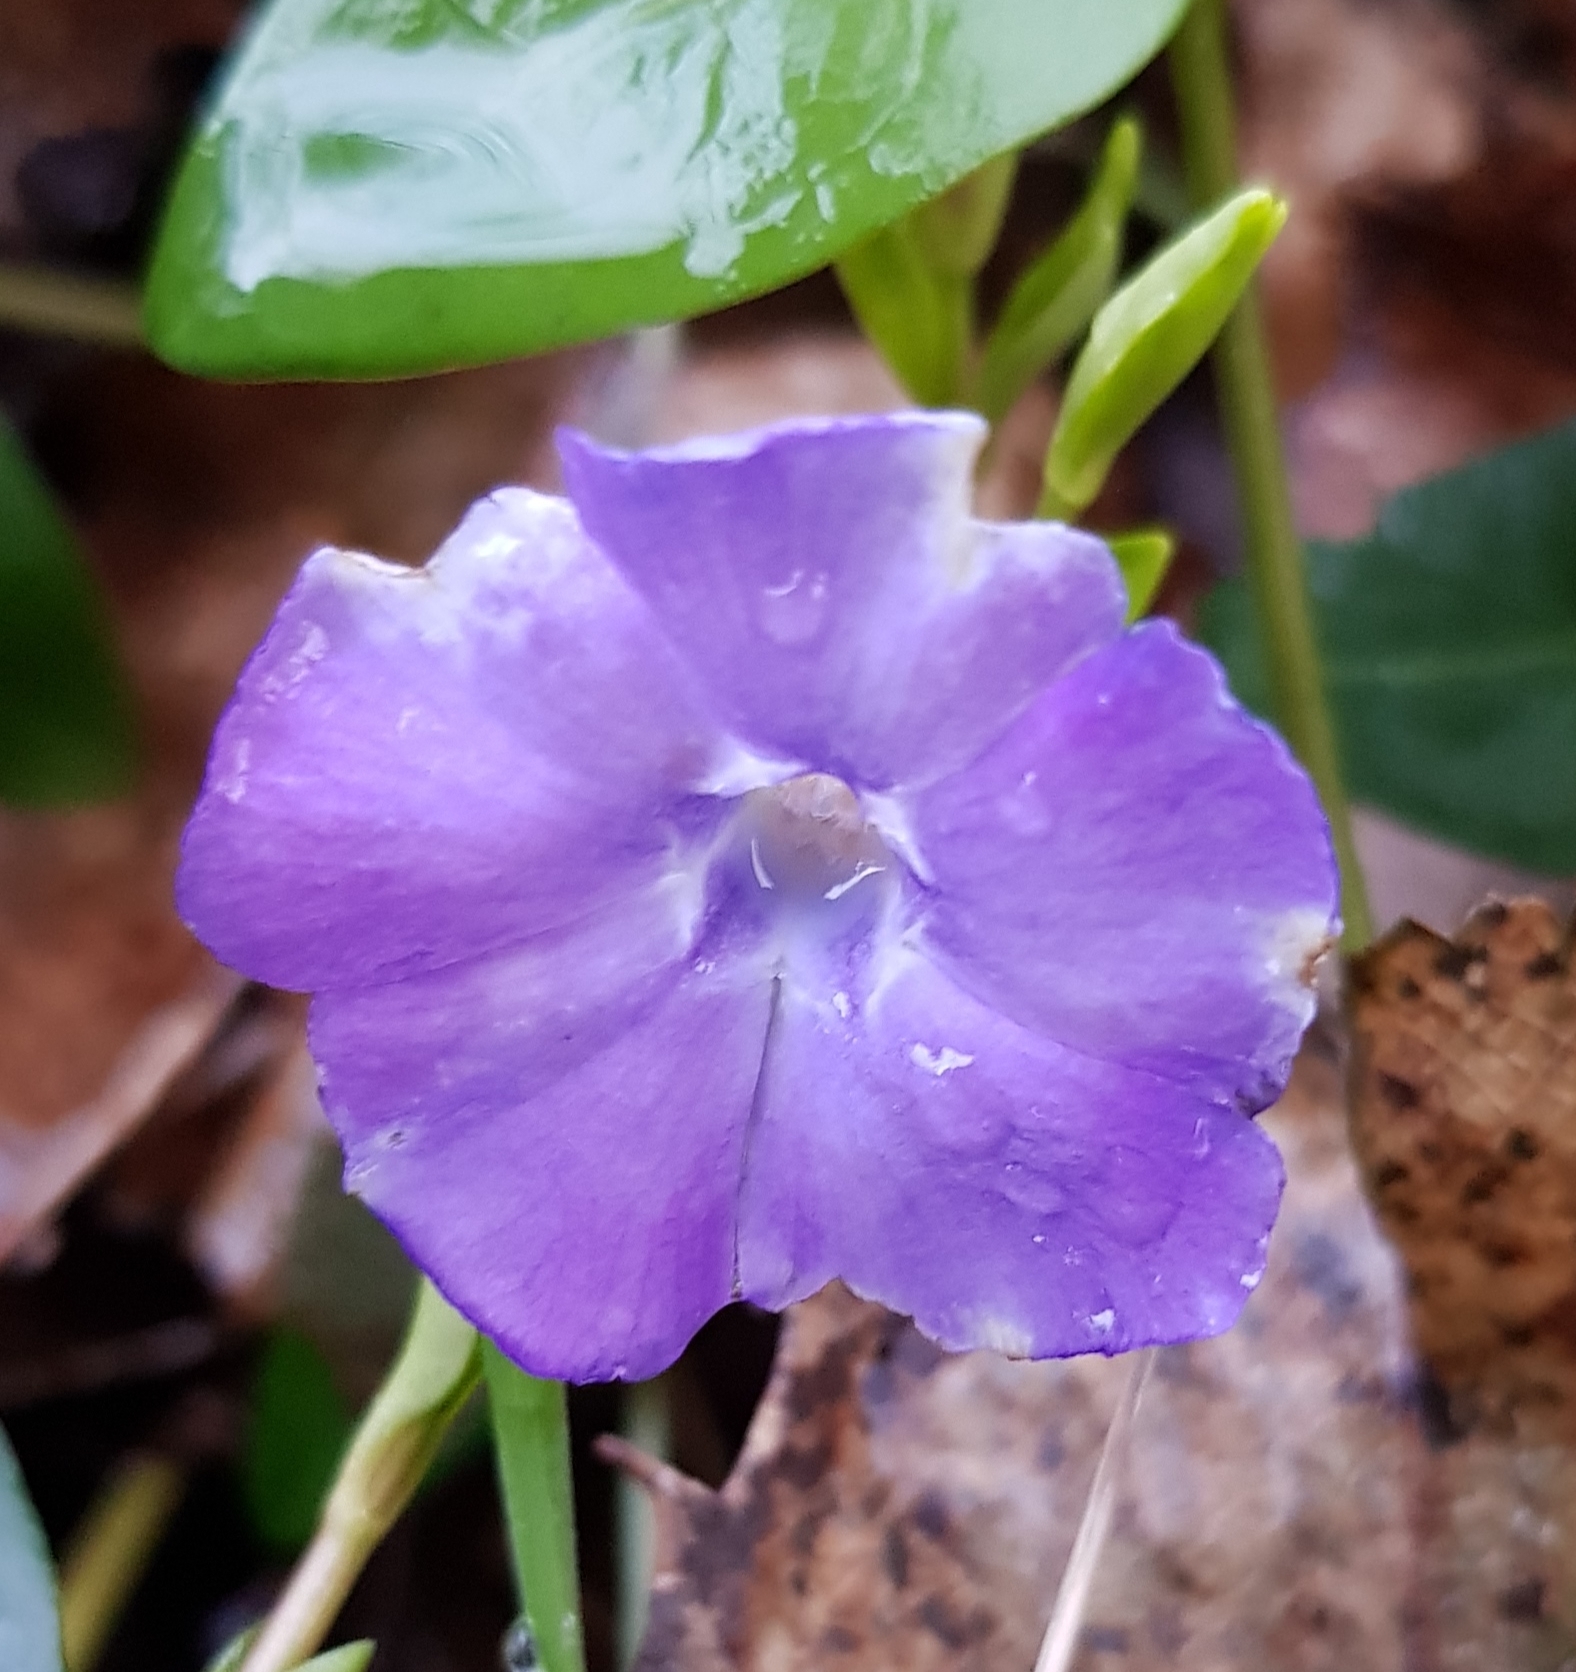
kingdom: Plantae
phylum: Tracheophyta
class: Magnoliopsida
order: Gentianales
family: Apocynaceae
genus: Vinca
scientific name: Vinca minor
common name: Lesser periwinkle
